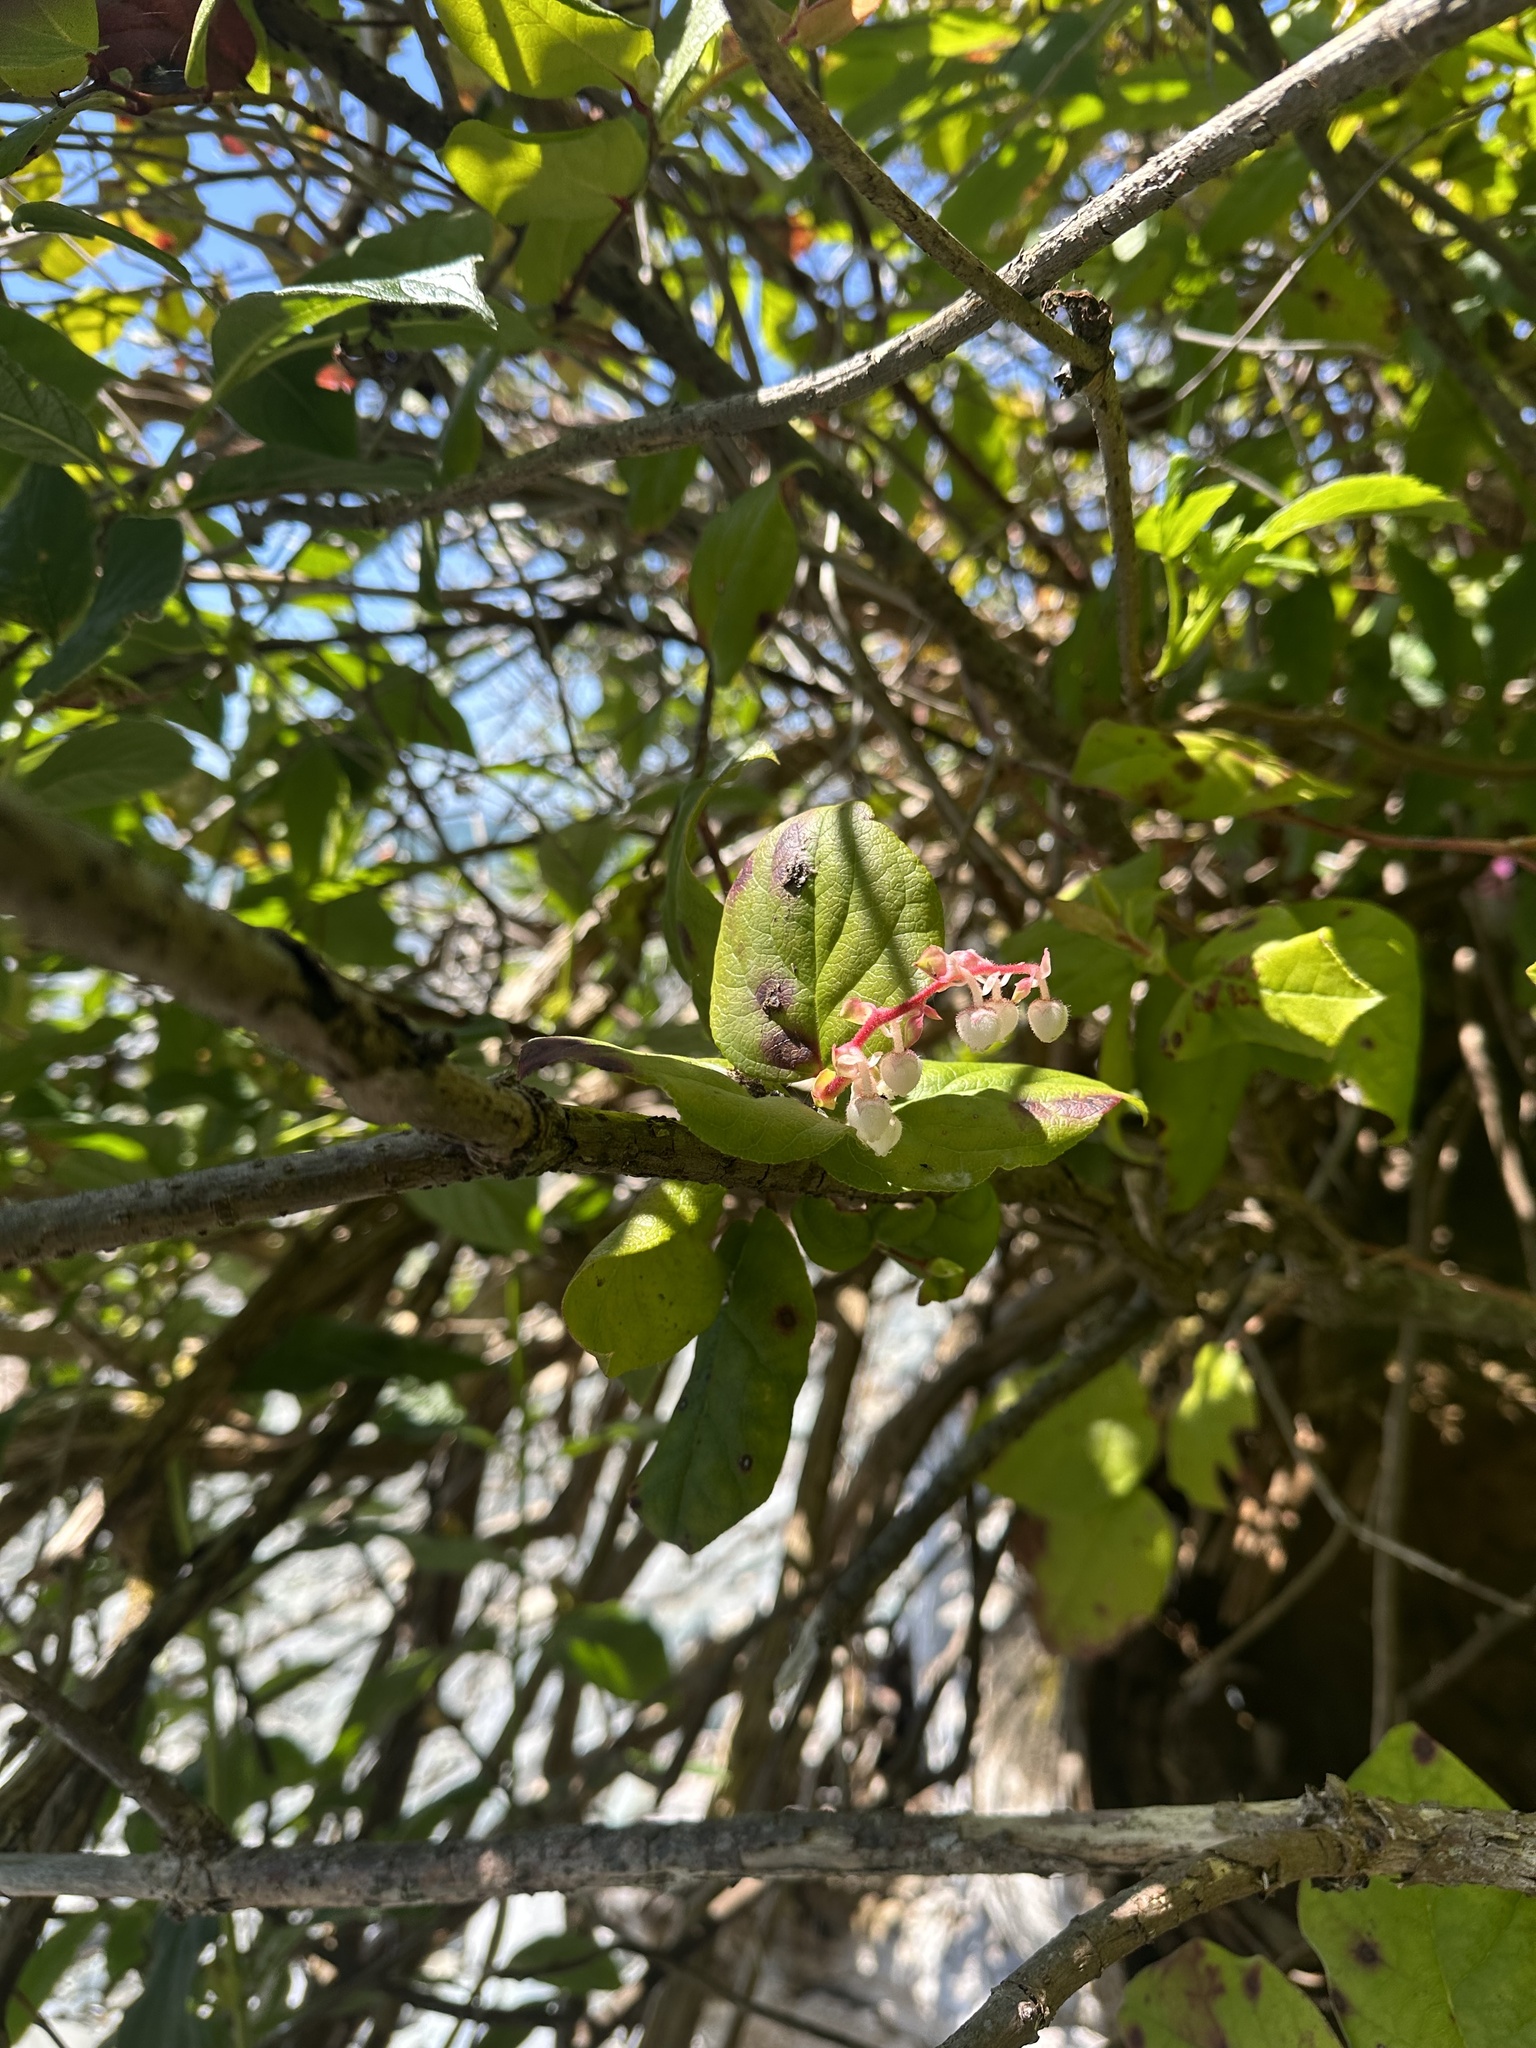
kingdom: Plantae
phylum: Tracheophyta
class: Magnoliopsida
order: Ericales
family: Ericaceae
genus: Gaultheria
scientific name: Gaultheria shallon
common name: Shallon
